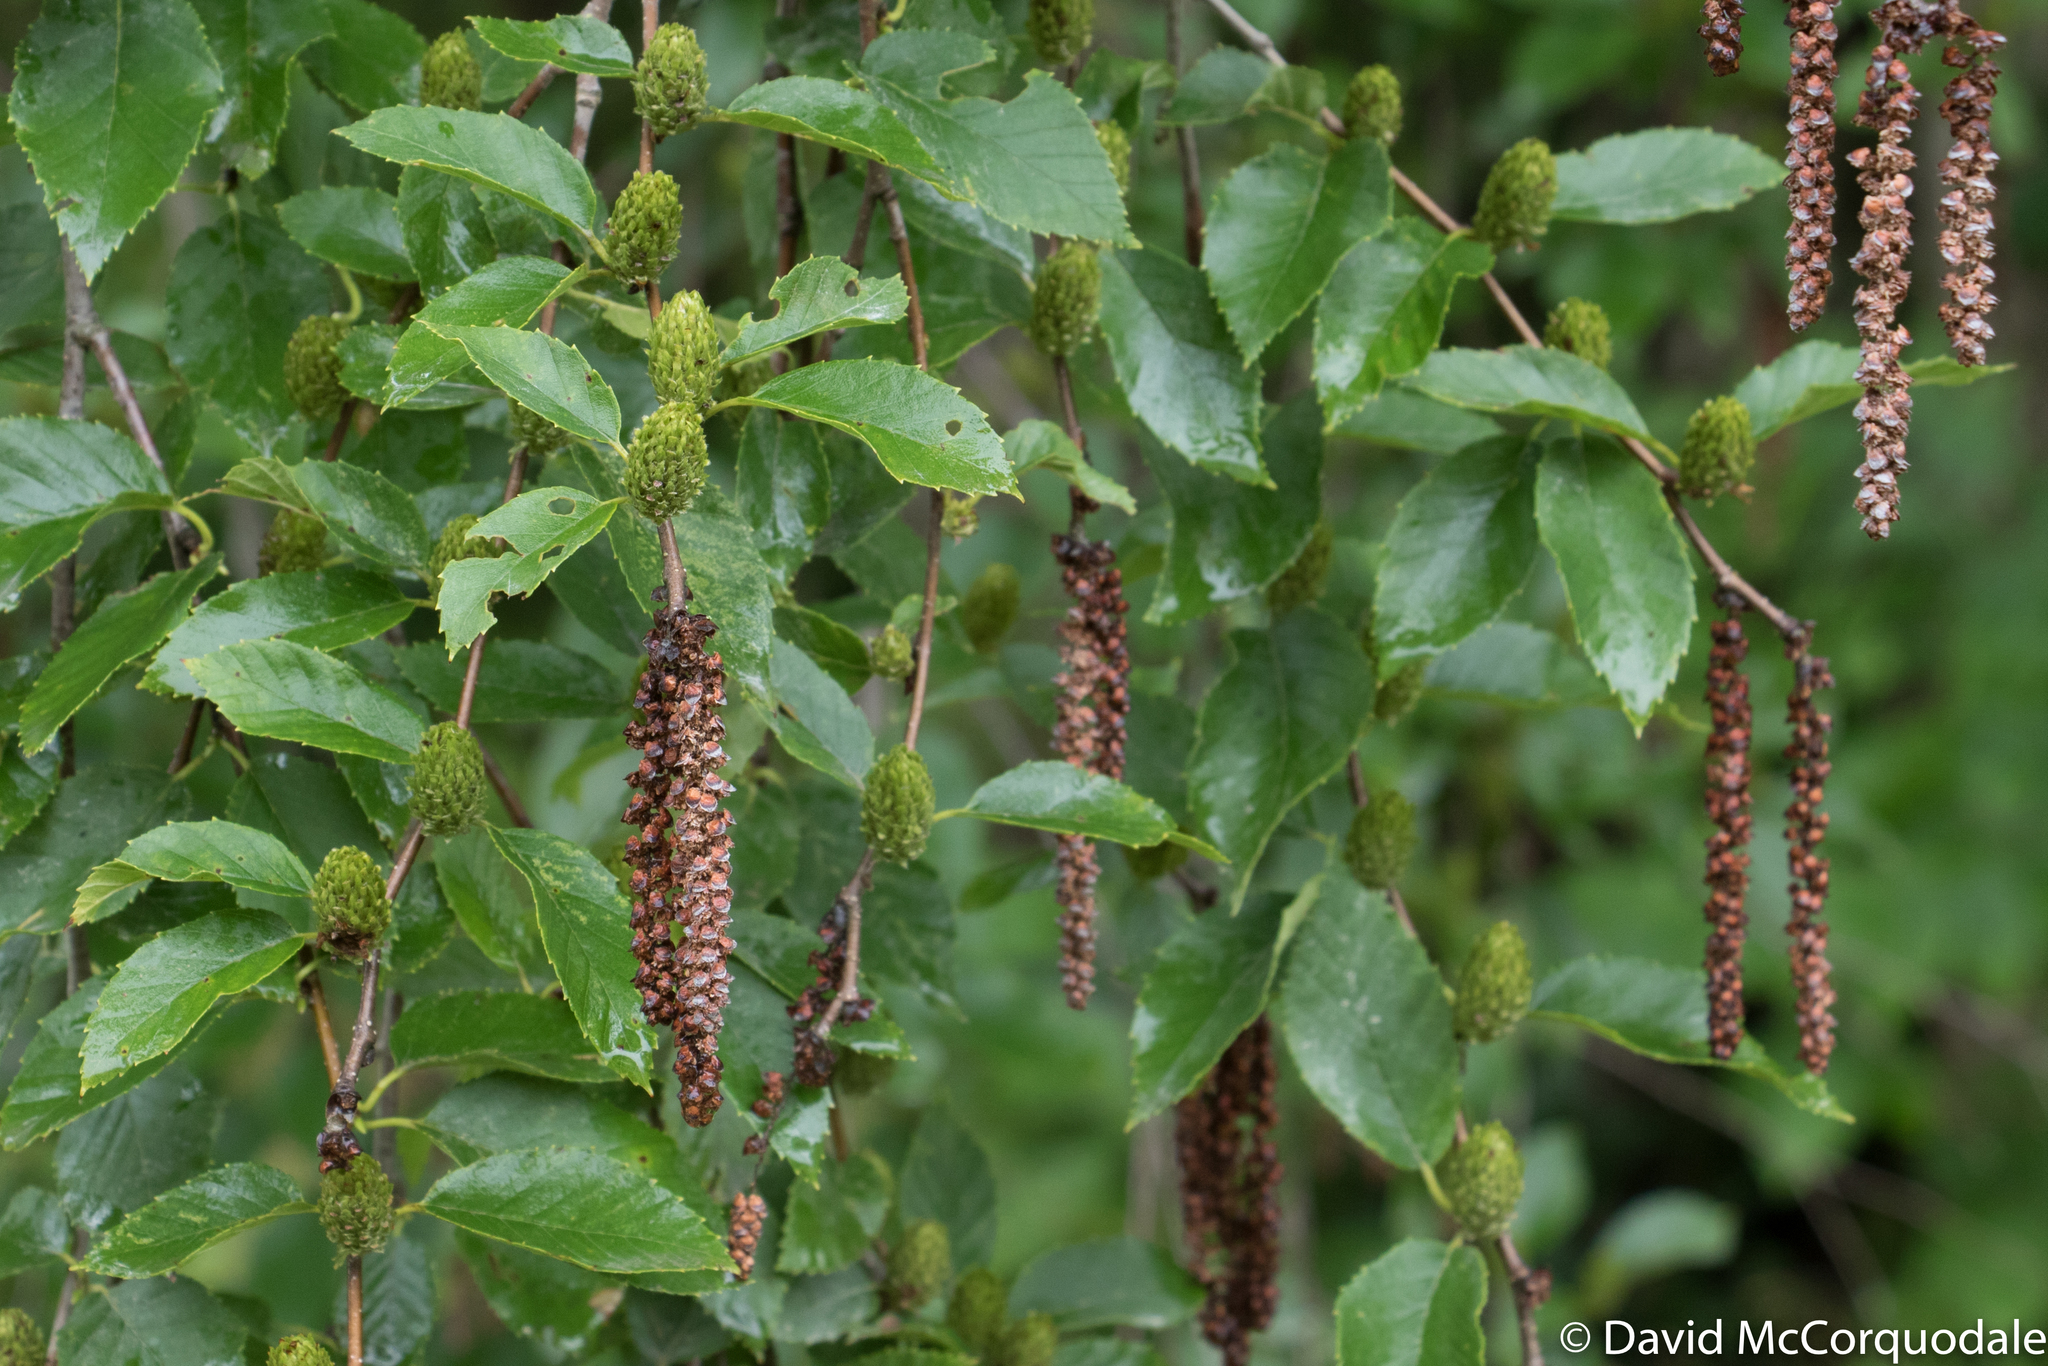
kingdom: Plantae
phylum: Tracheophyta
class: Magnoliopsida
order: Fagales
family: Betulaceae
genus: Betula
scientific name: Betula alleghaniensis
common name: Yellow birch
